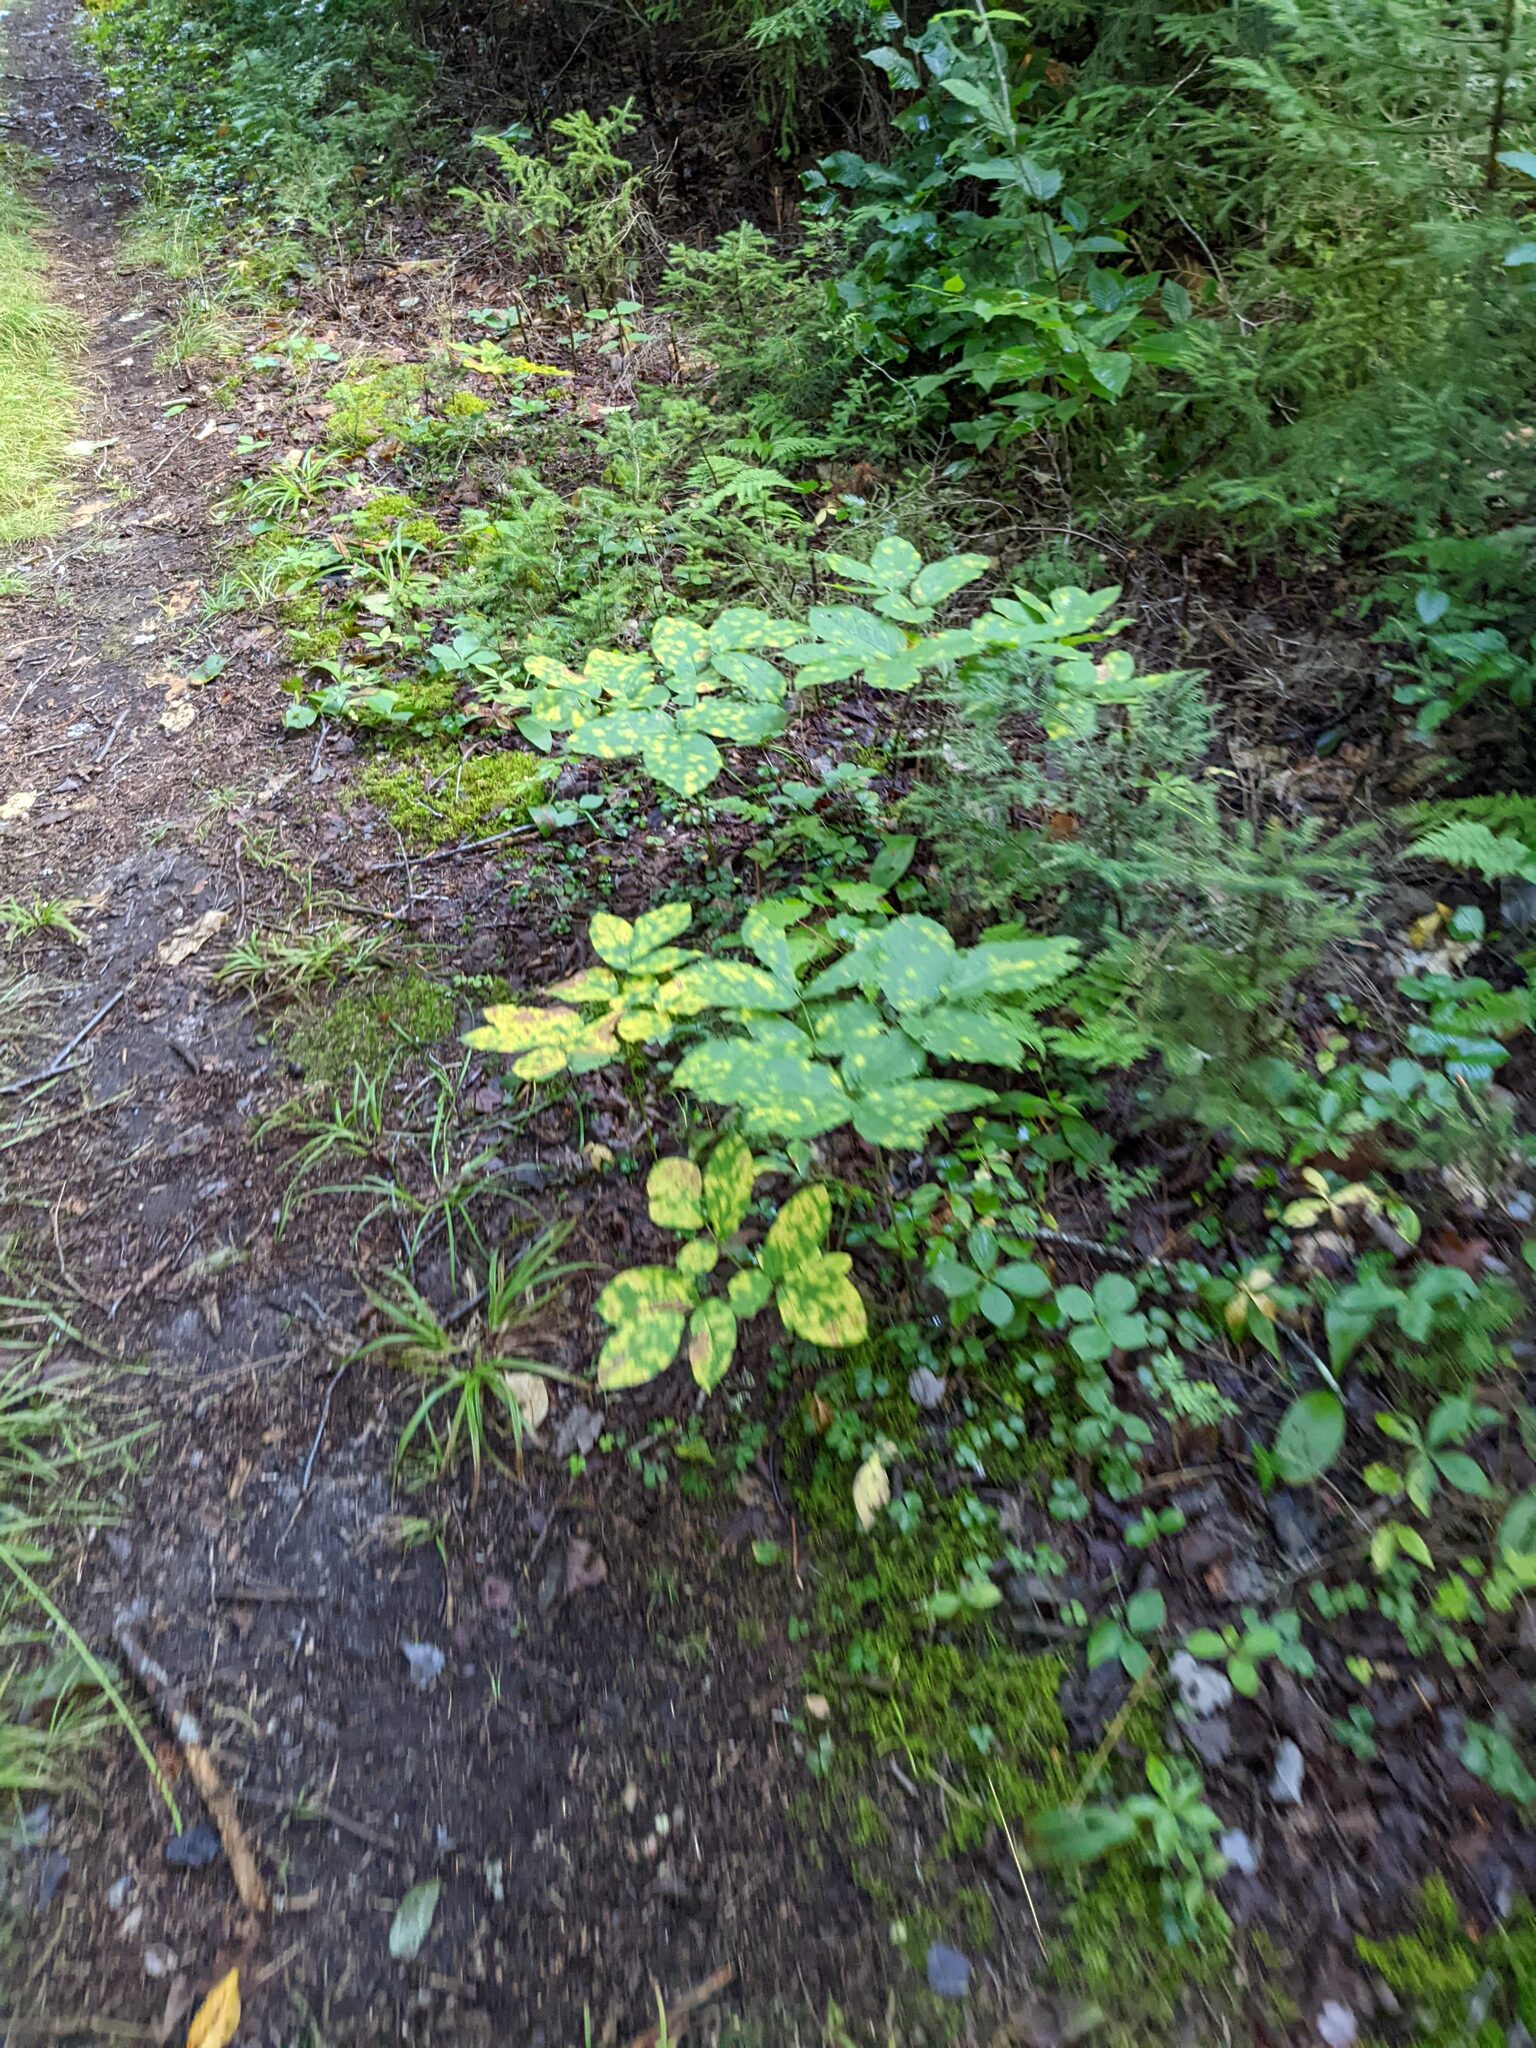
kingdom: Plantae
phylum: Tracheophyta
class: Magnoliopsida
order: Apiales
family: Araliaceae
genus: Aralia
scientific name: Aralia nudicaulis
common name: Wild sarsaparilla
